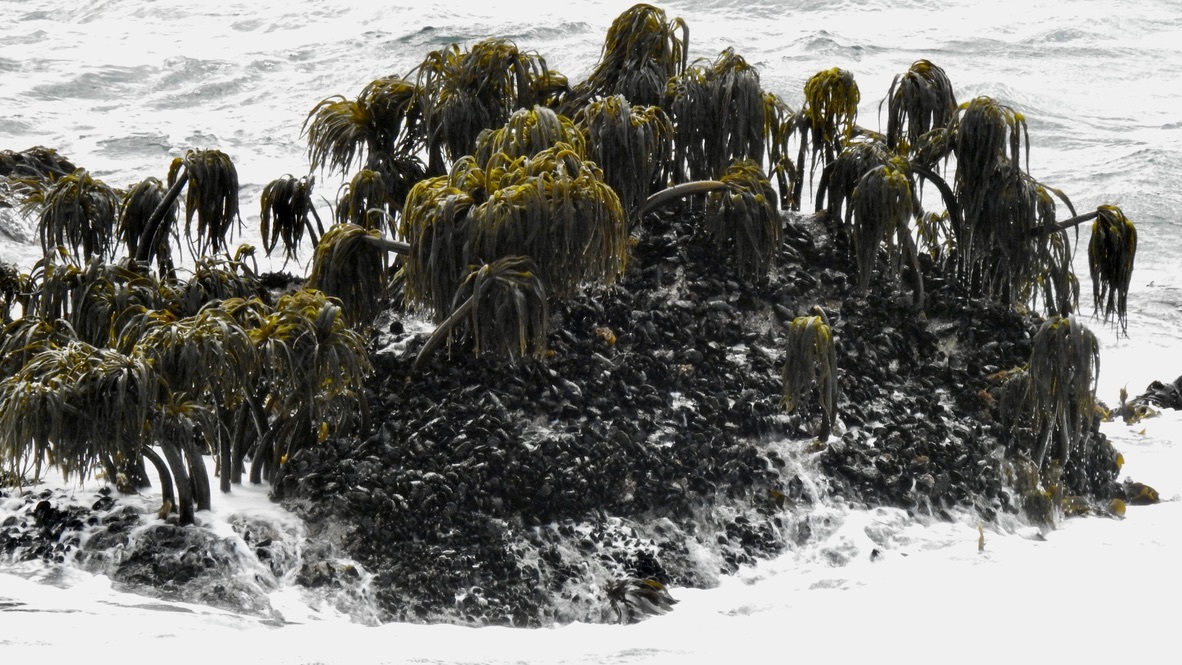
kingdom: Chromista
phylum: Ochrophyta
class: Phaeophyceae
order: Laminariales
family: Laminariaceae
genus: Postelsia
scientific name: Postelsia palmiformis
